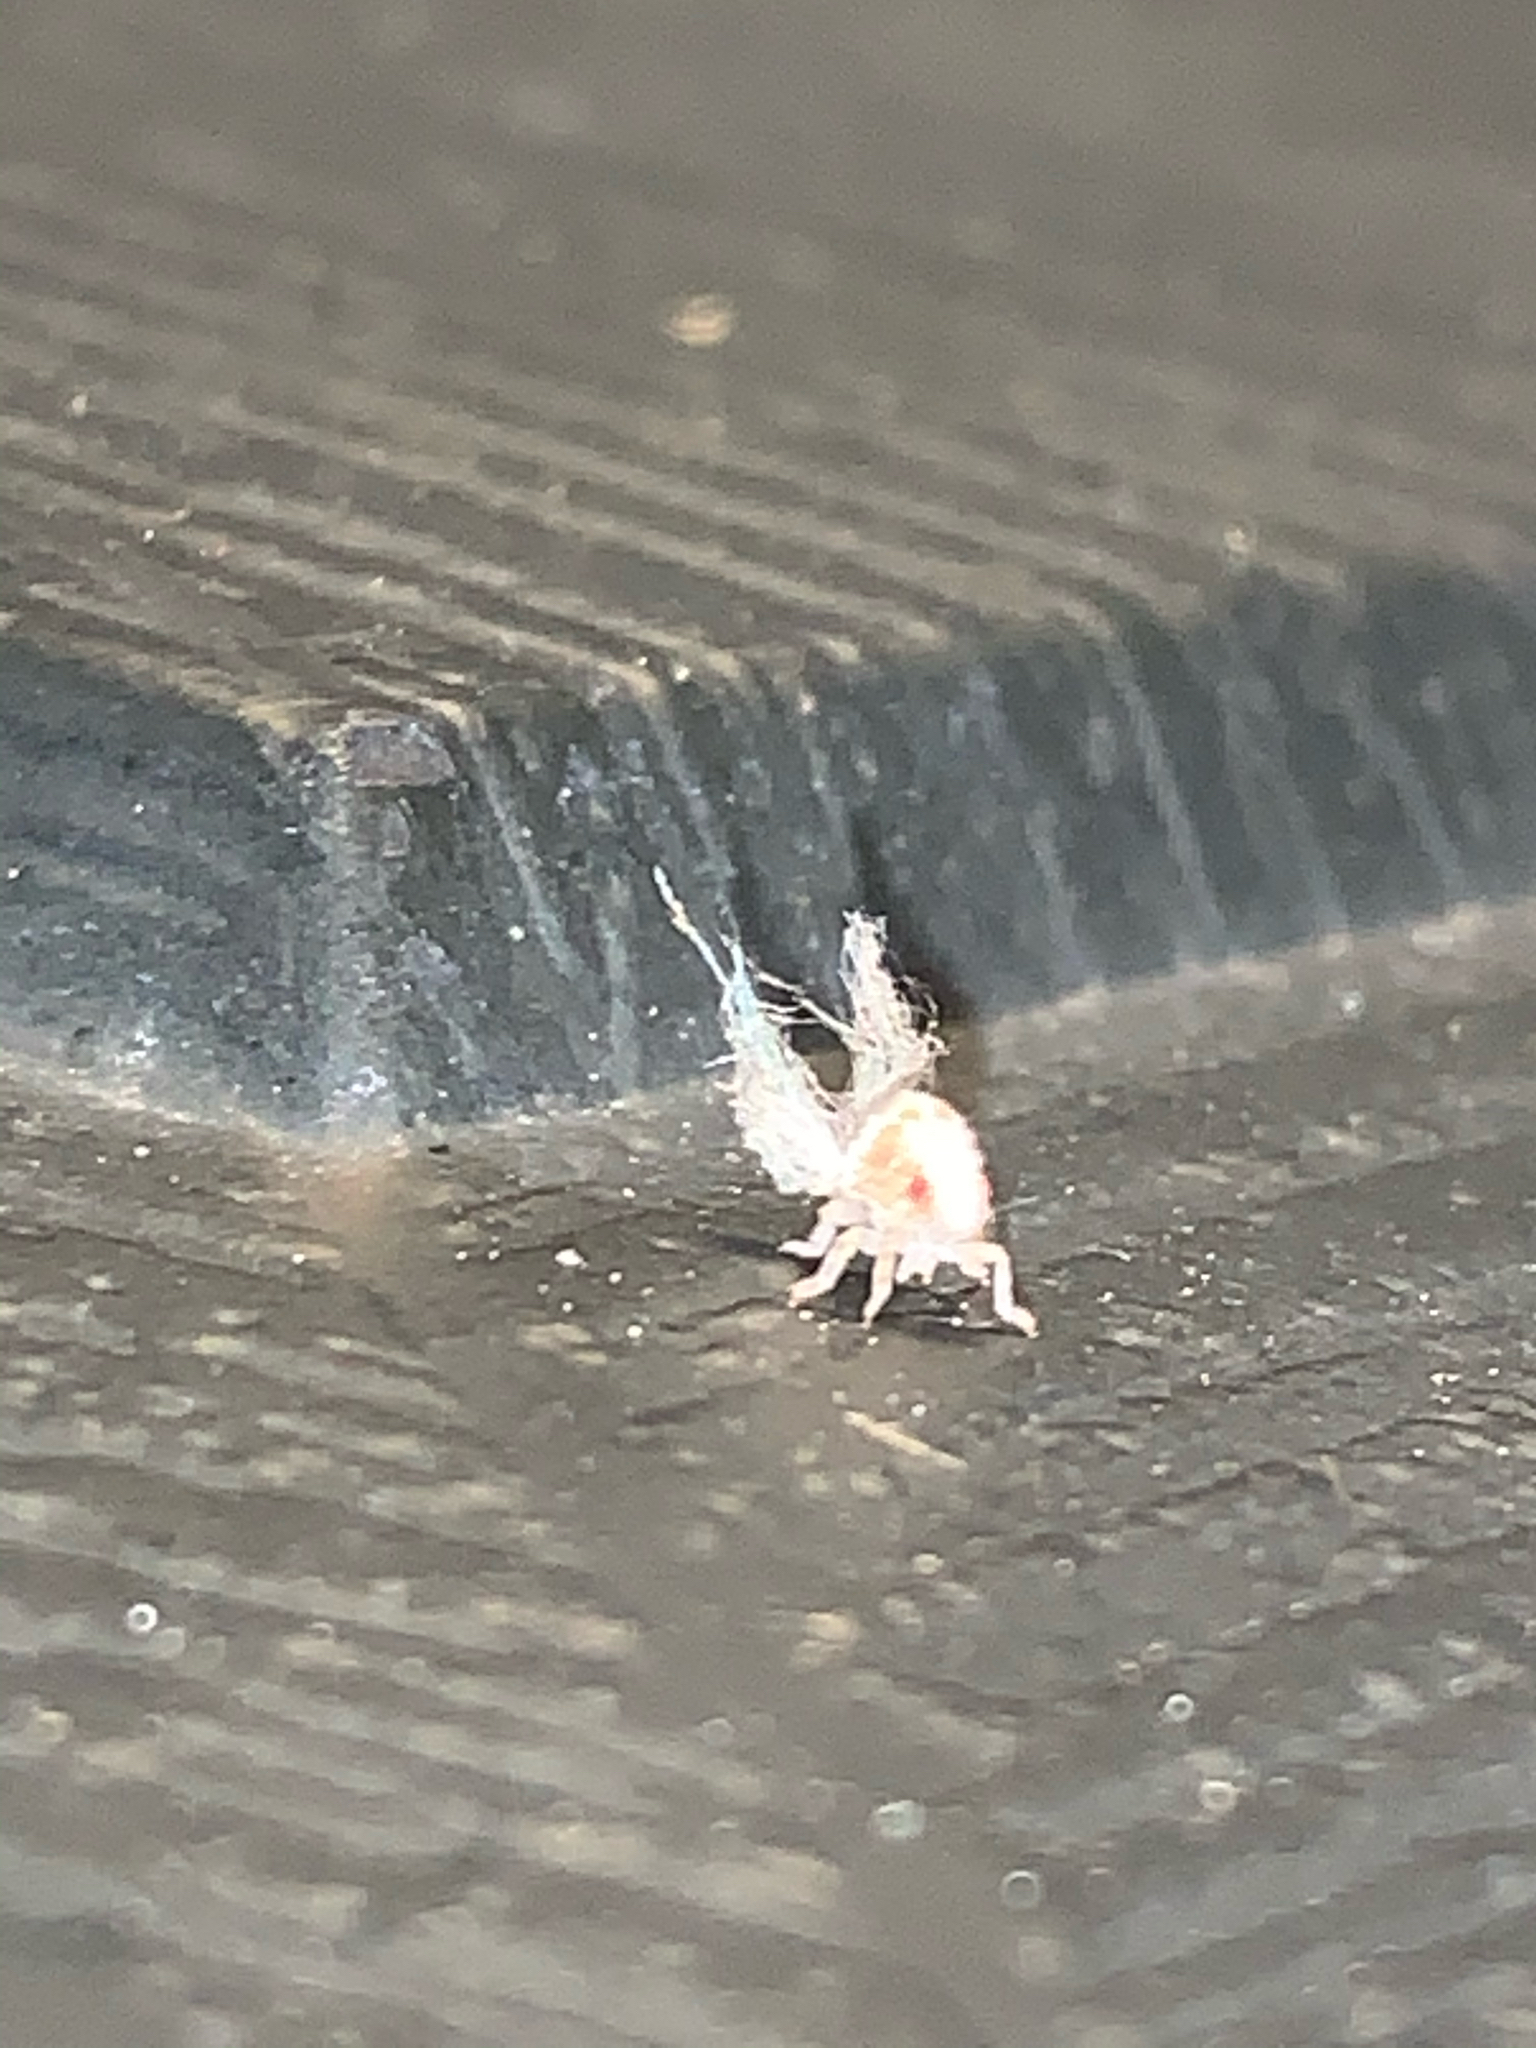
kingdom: Animalia
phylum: Arthropoda
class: Insecta
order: Hemiptera
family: Acanaloniidae
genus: Acanalonia
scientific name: Acanalonia
